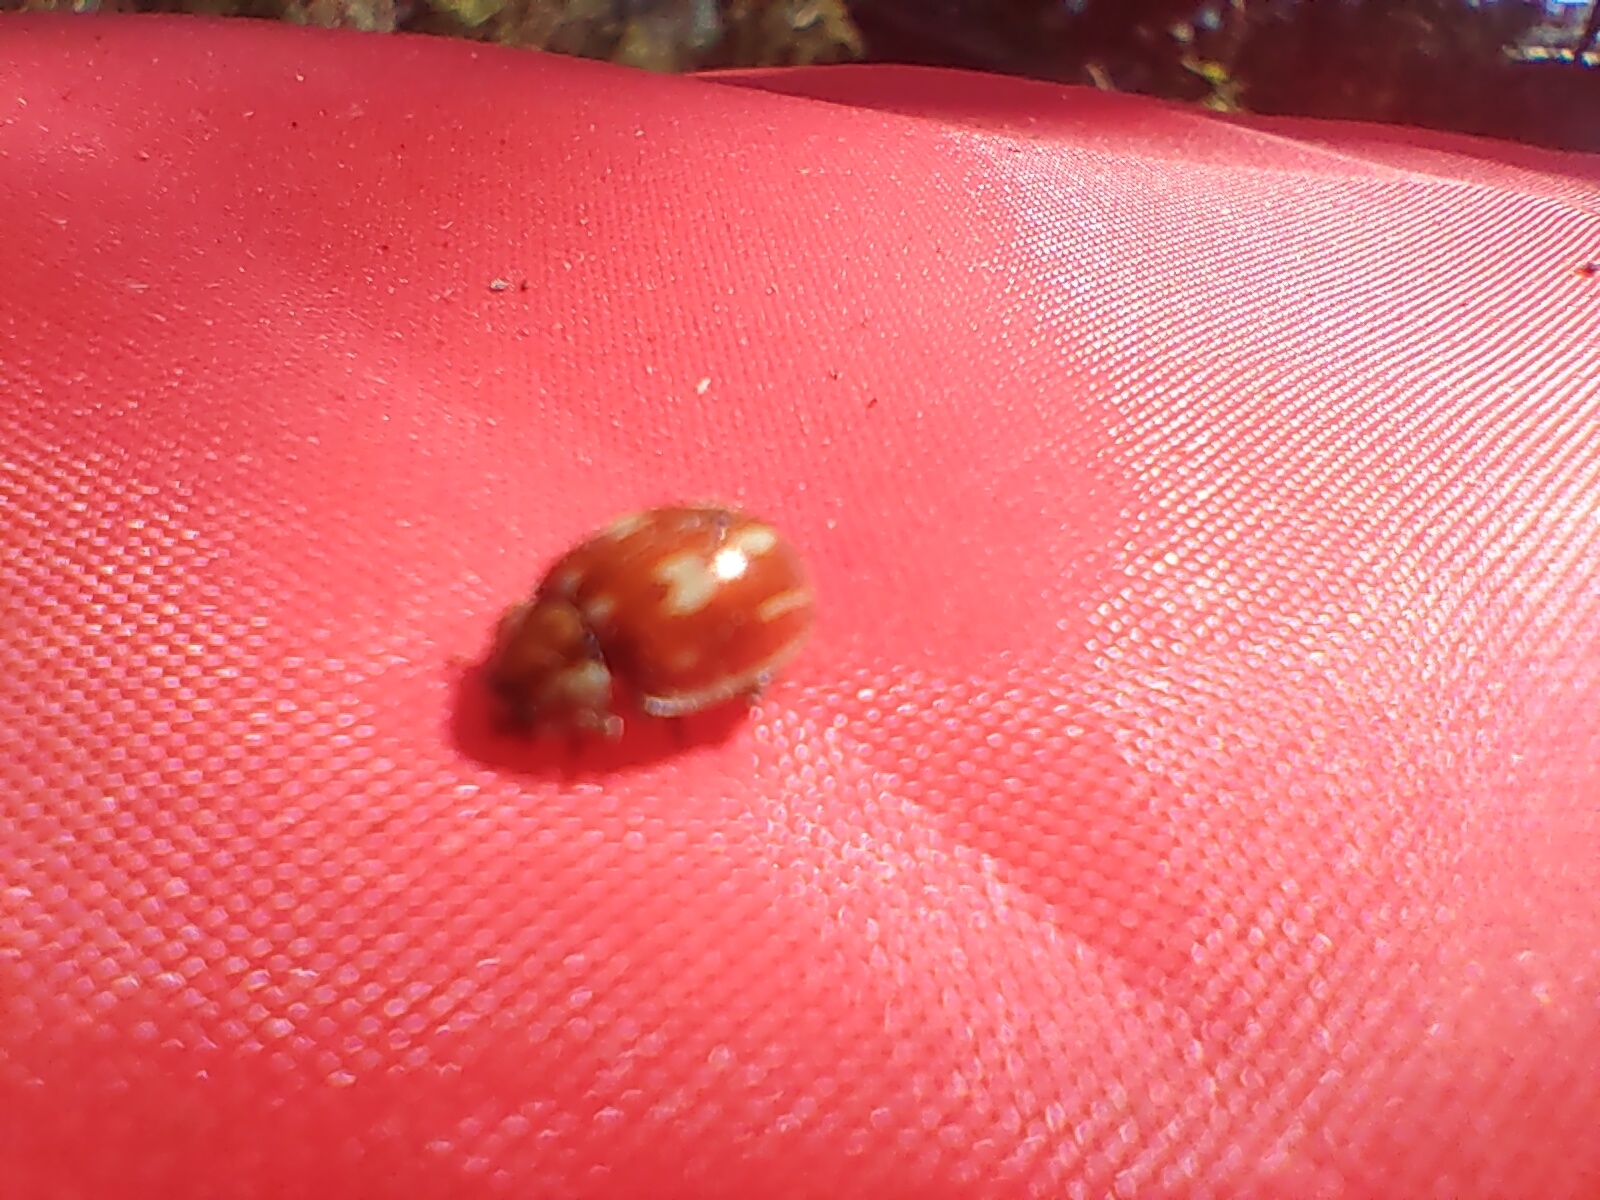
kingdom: Animalia
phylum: Arthropoda
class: Insecta
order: Coleoptera
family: Coccinellidae
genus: Myzia
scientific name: Myzia oblongoguttata
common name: Striped ladybird
